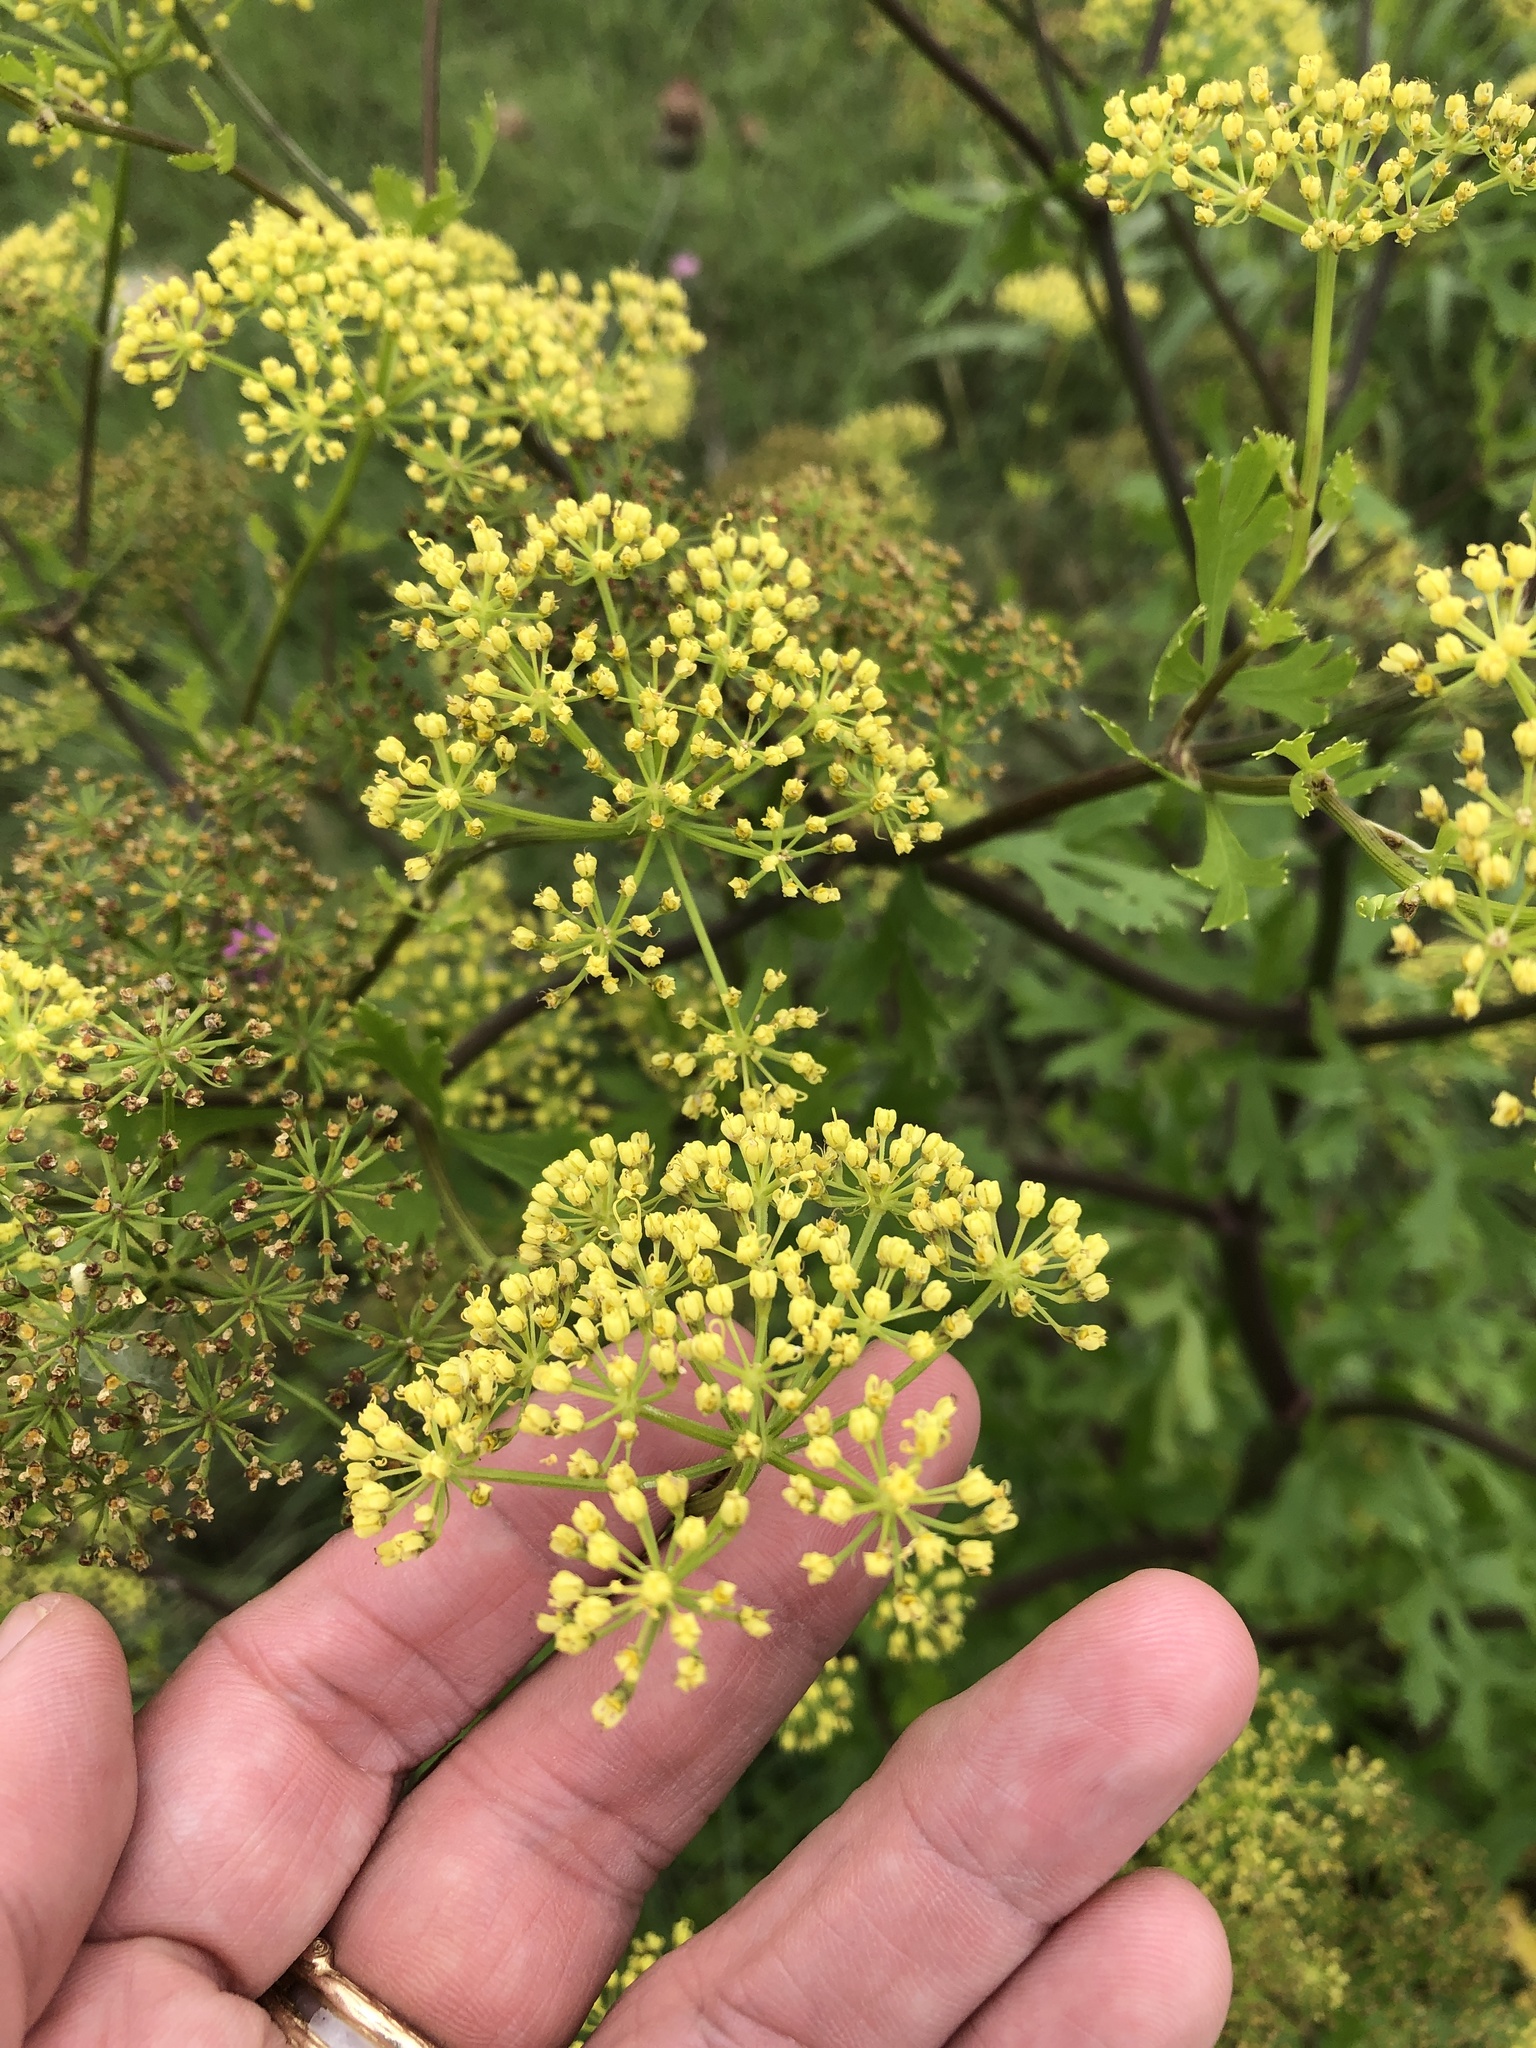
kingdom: Plantae
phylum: Tracheophyta
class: Magnoliopsida
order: Apiales
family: Apiaceae
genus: Polytaenia
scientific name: Polytaenia texana
